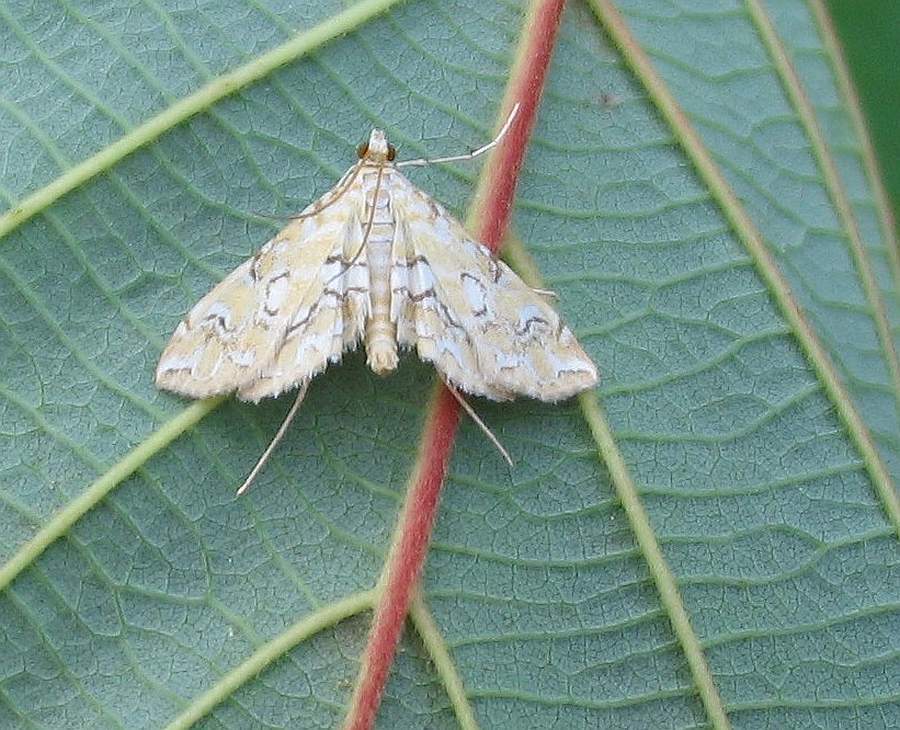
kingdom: Animalia
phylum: Arthropoda
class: Insecta
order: Lepidoptera
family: Crambidae
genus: Elophila
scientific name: Elophila icciusalis
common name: Pondside pyralid moth
